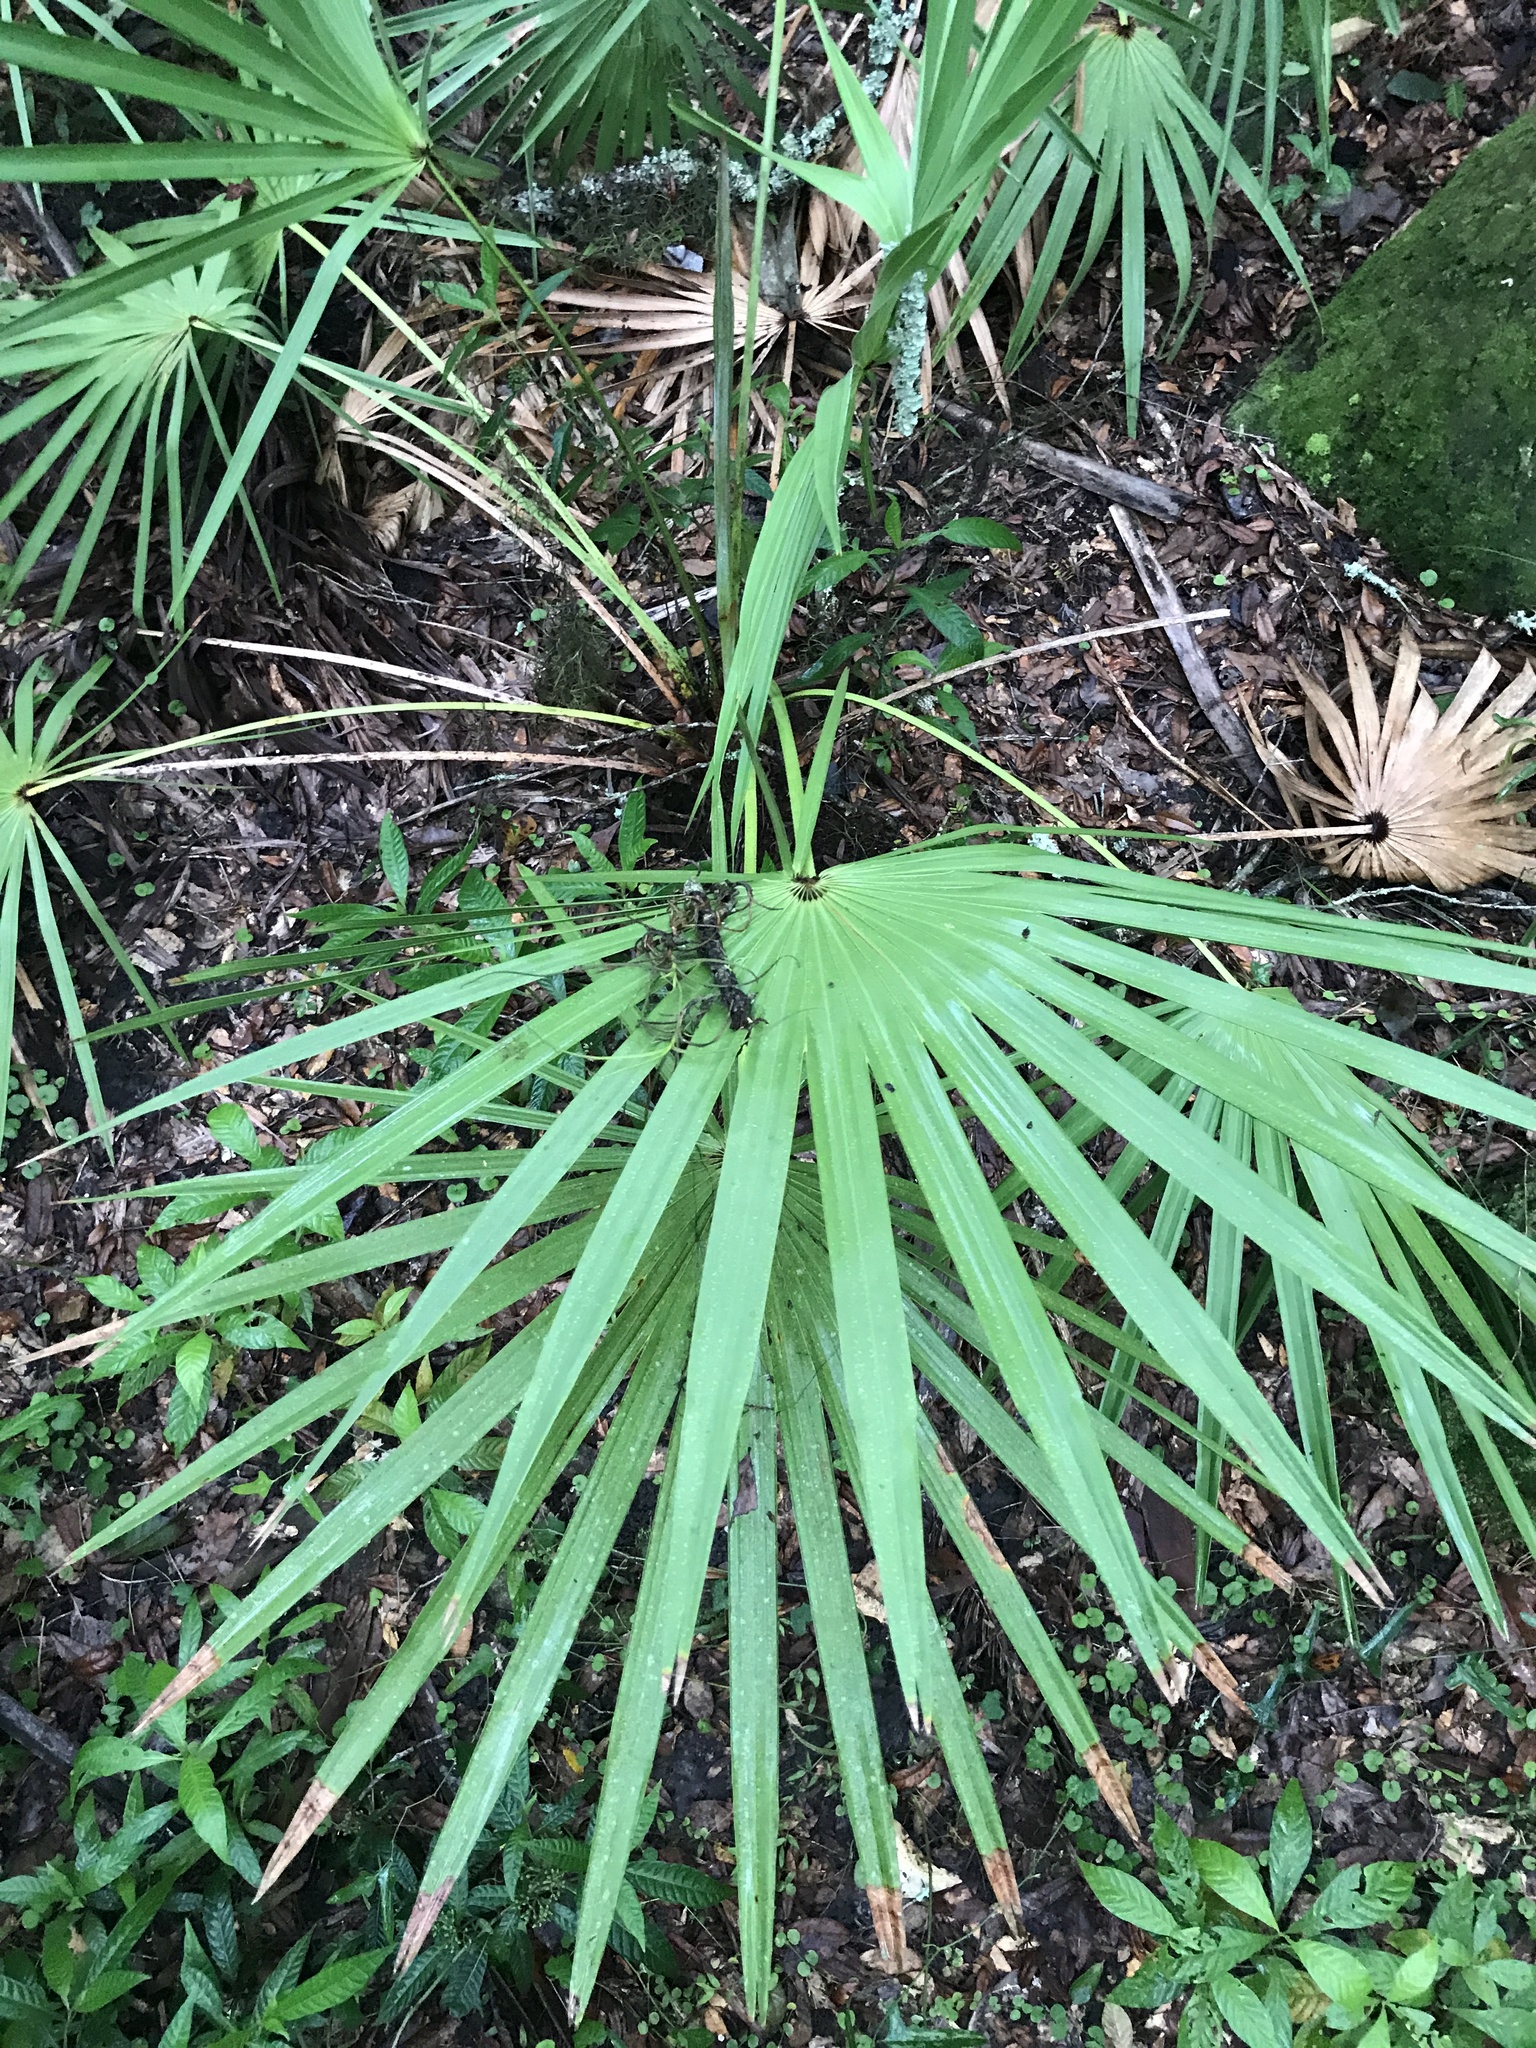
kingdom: Plantae
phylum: Tracheophyta
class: Liliopsida
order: Arecales
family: Arecaceae
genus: Serenoa
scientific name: Serenoa repens
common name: Saw-palmetto
